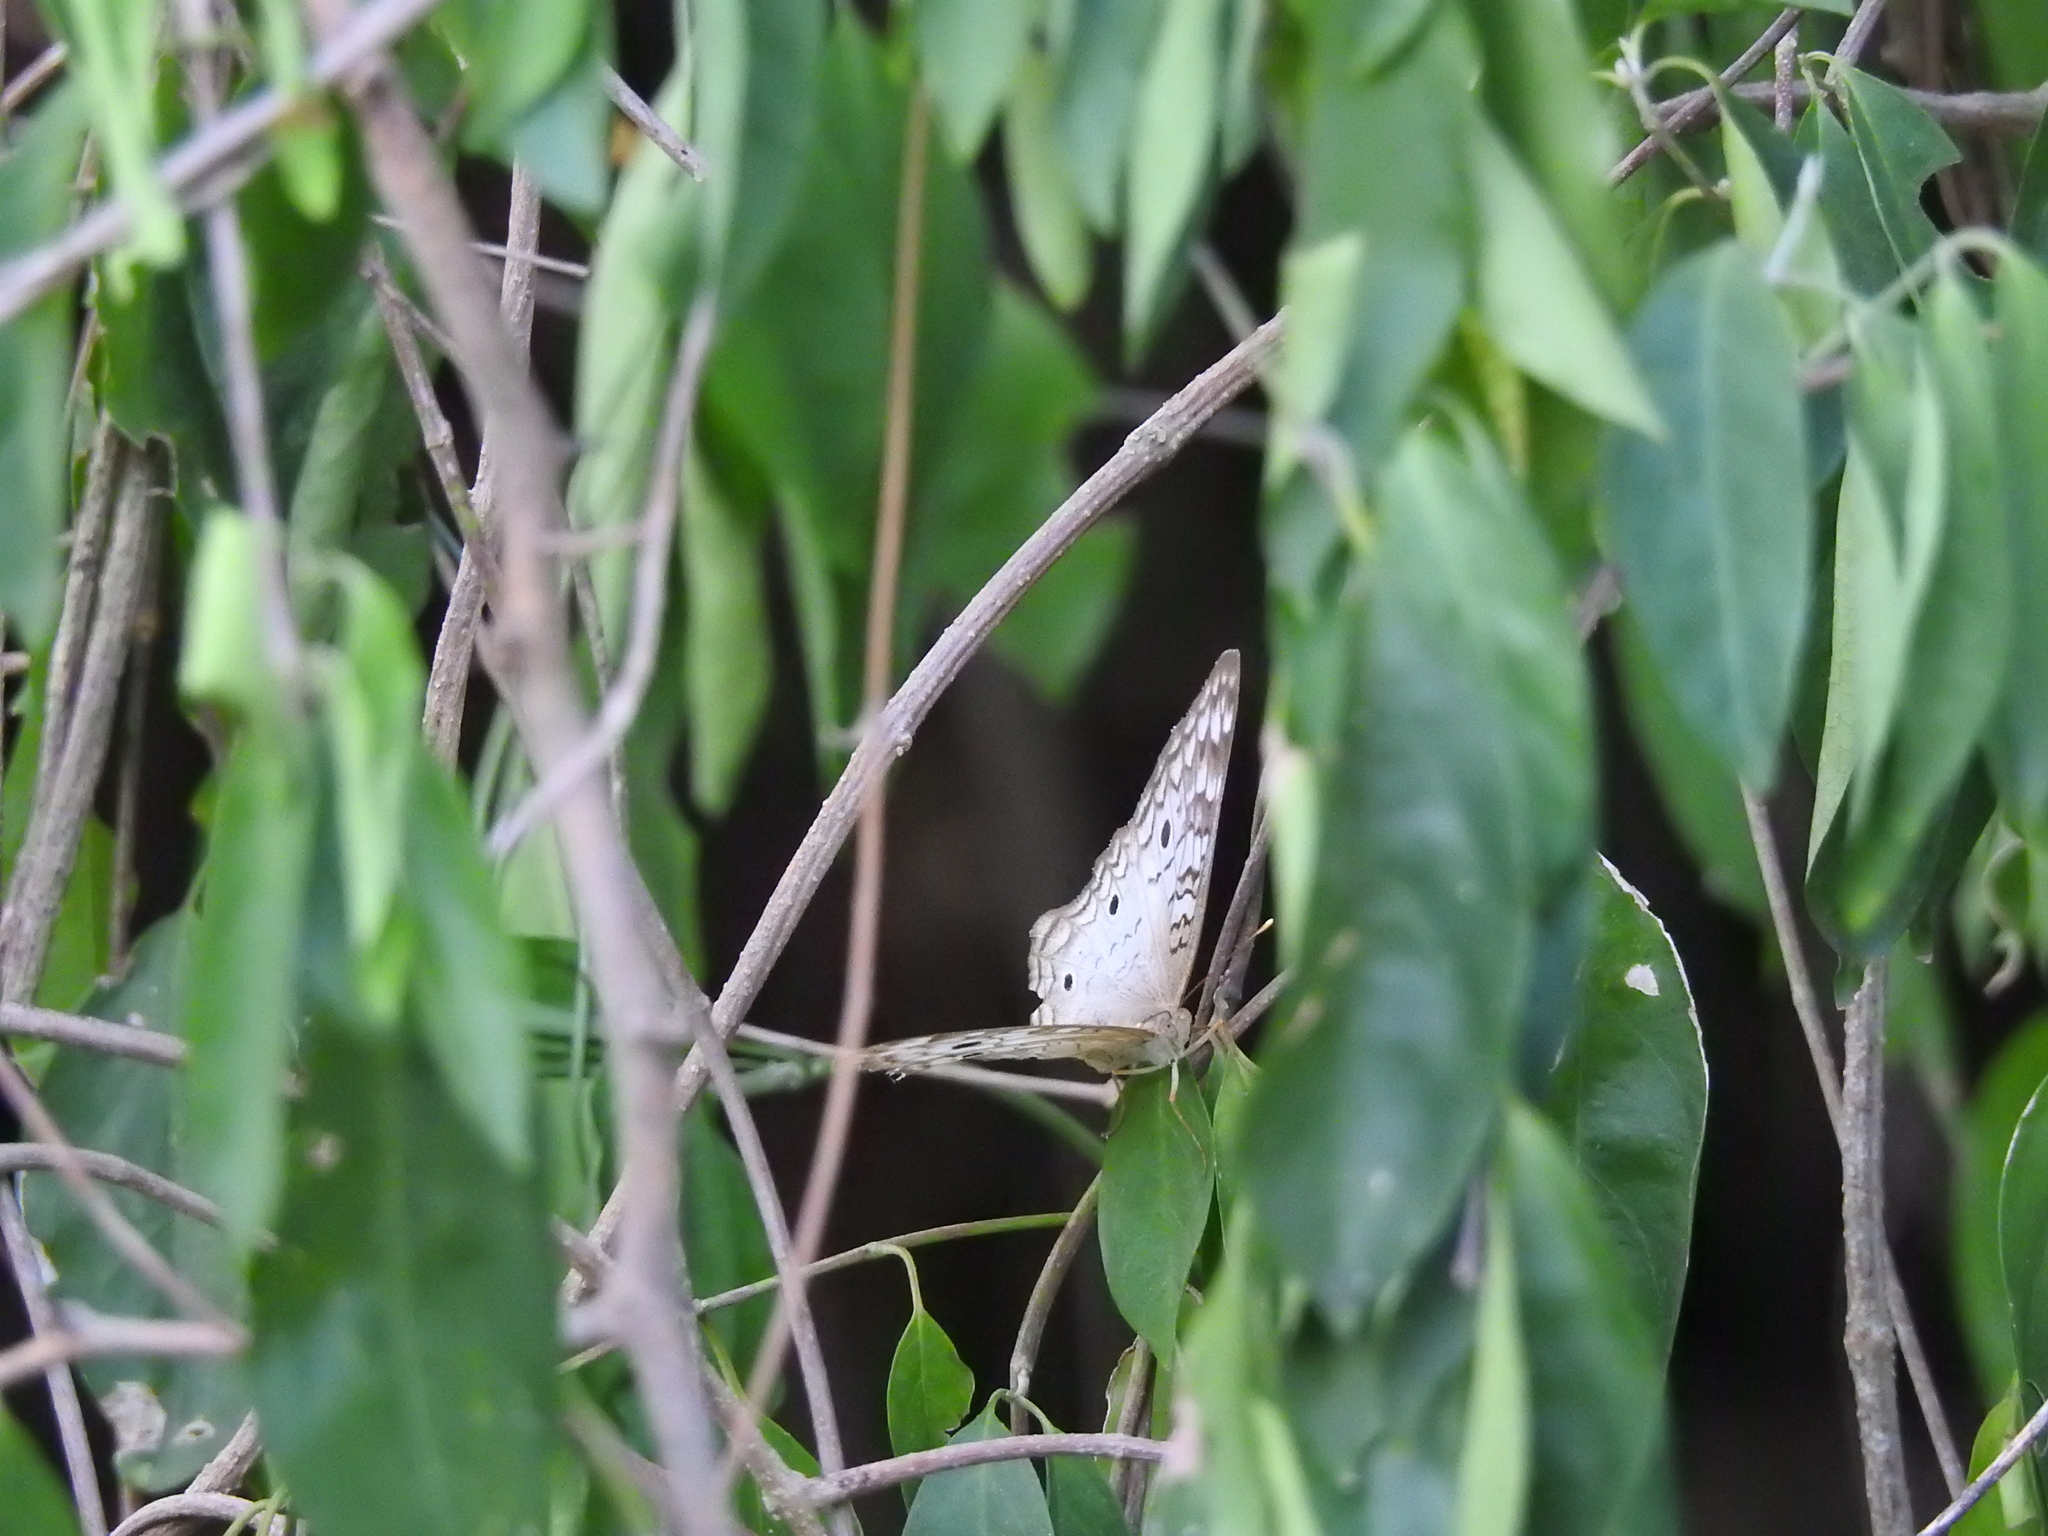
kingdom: Animalia
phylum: Arthropoda
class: Insecta
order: Lepidoptera
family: Nymphalidae
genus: Anartia
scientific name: Anartia jatrophae
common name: White peacock
